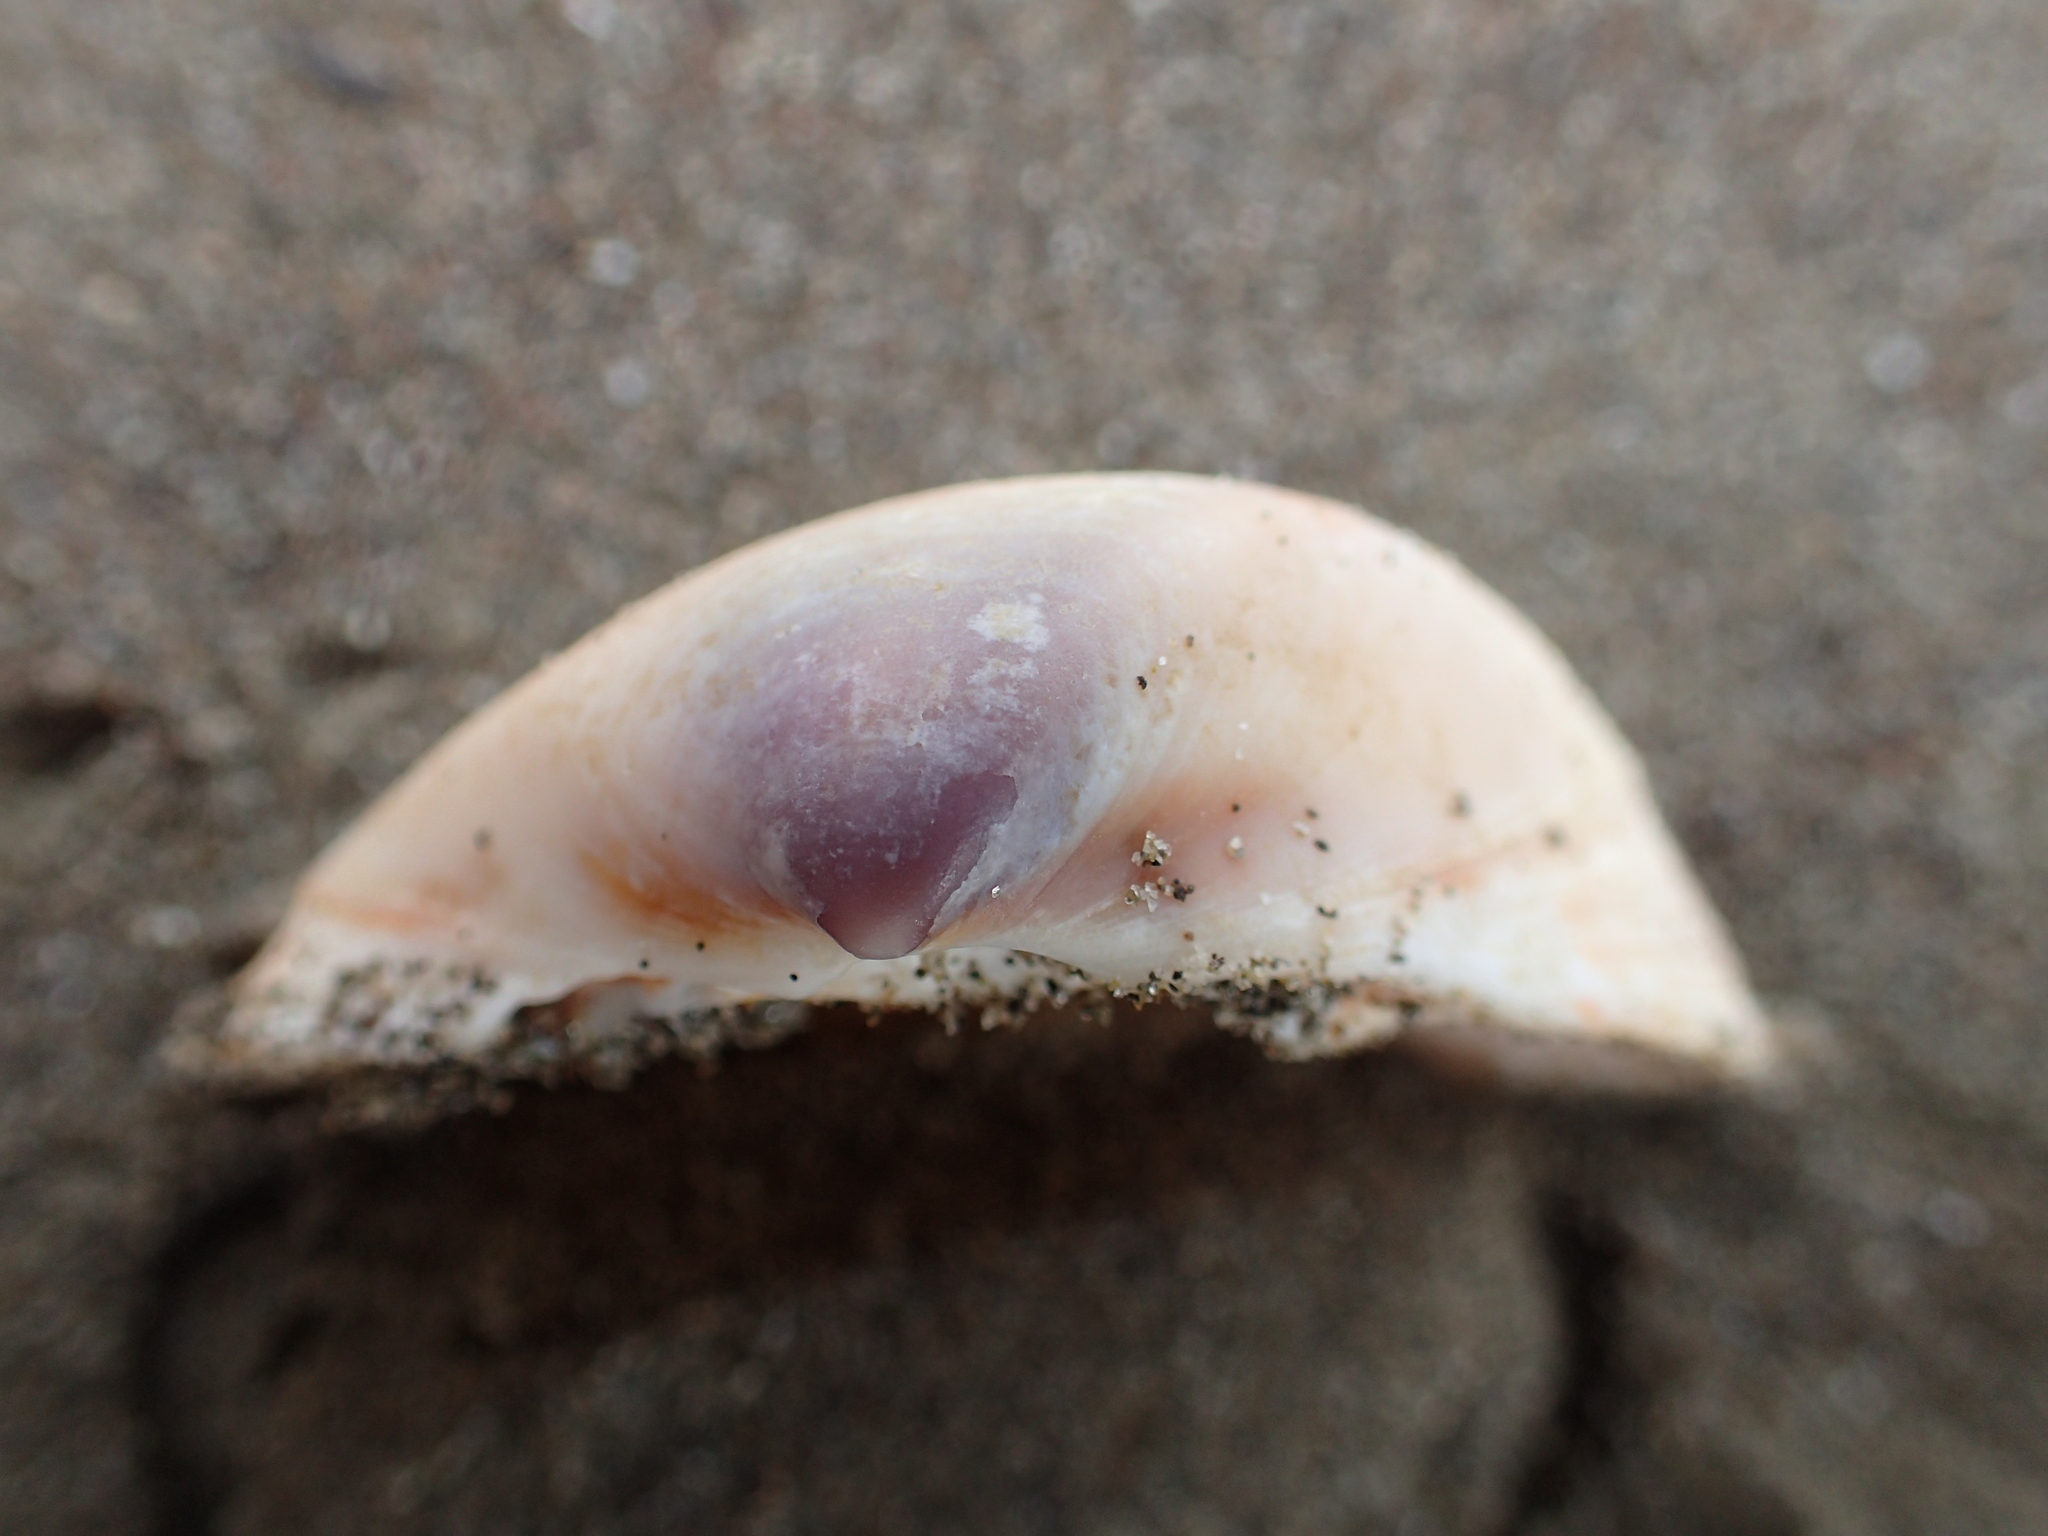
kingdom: Animalia
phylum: Mollusca
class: Bivalvia
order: Venerida
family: Mactridae
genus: Crassula
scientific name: Crassula aequilatera
